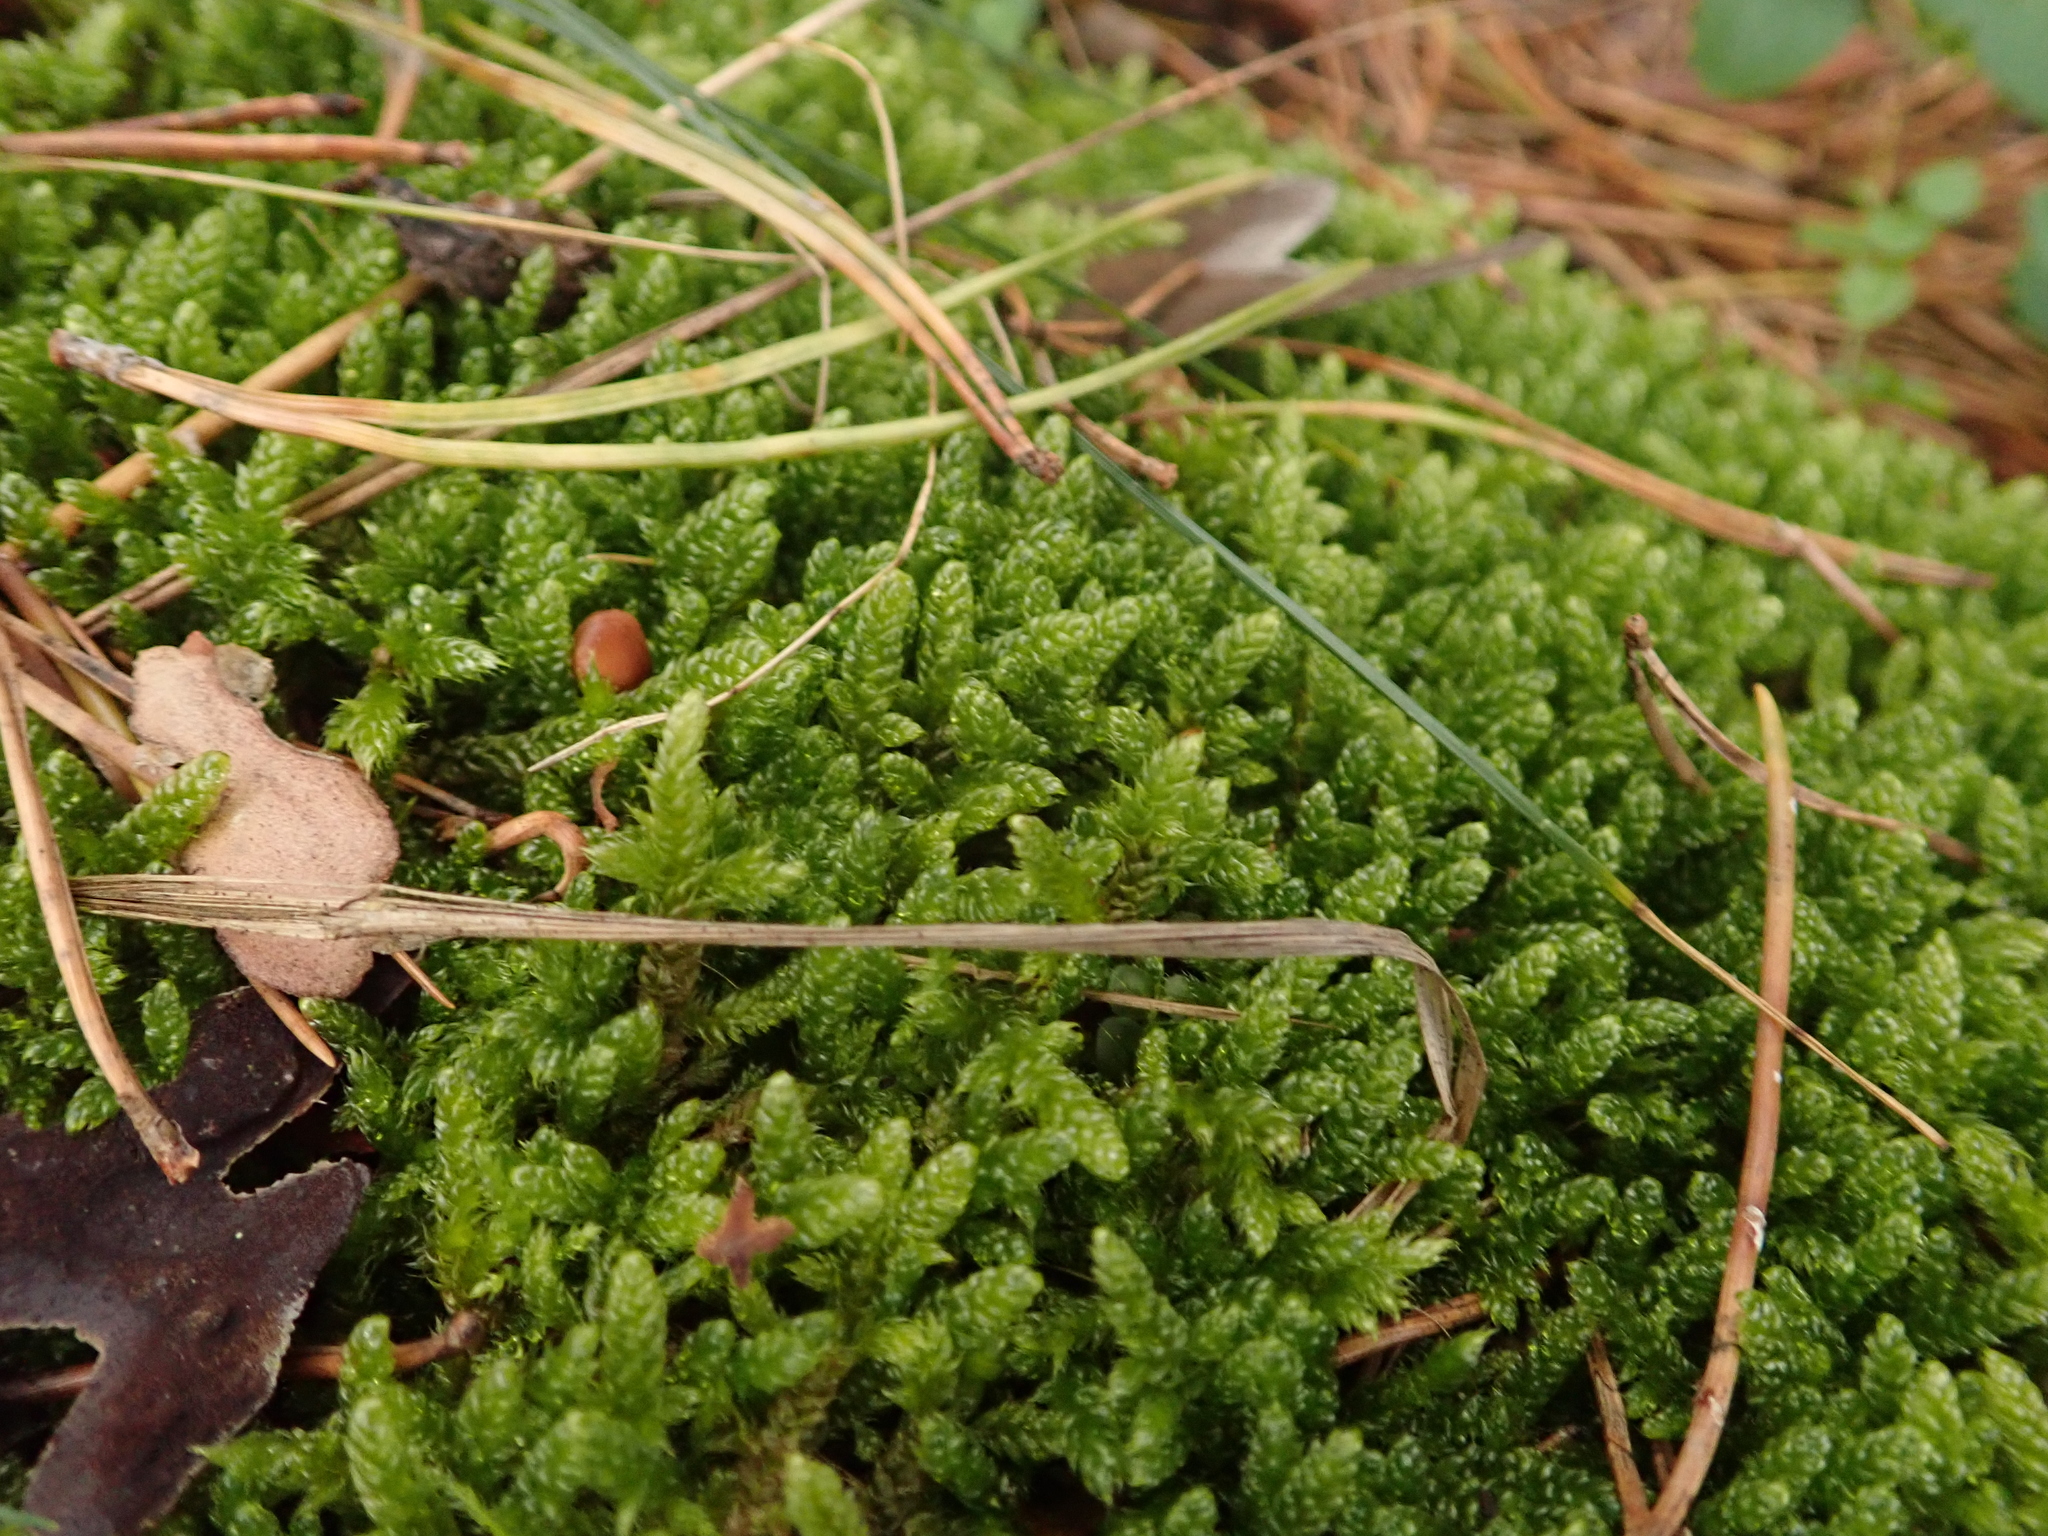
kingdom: Plantae
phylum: Bryophyta
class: Bryopsida
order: Hypnales
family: Hypnaceae
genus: Hypnum
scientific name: Hypnum cupressiforme
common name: Cypress-leaved plait-moss
